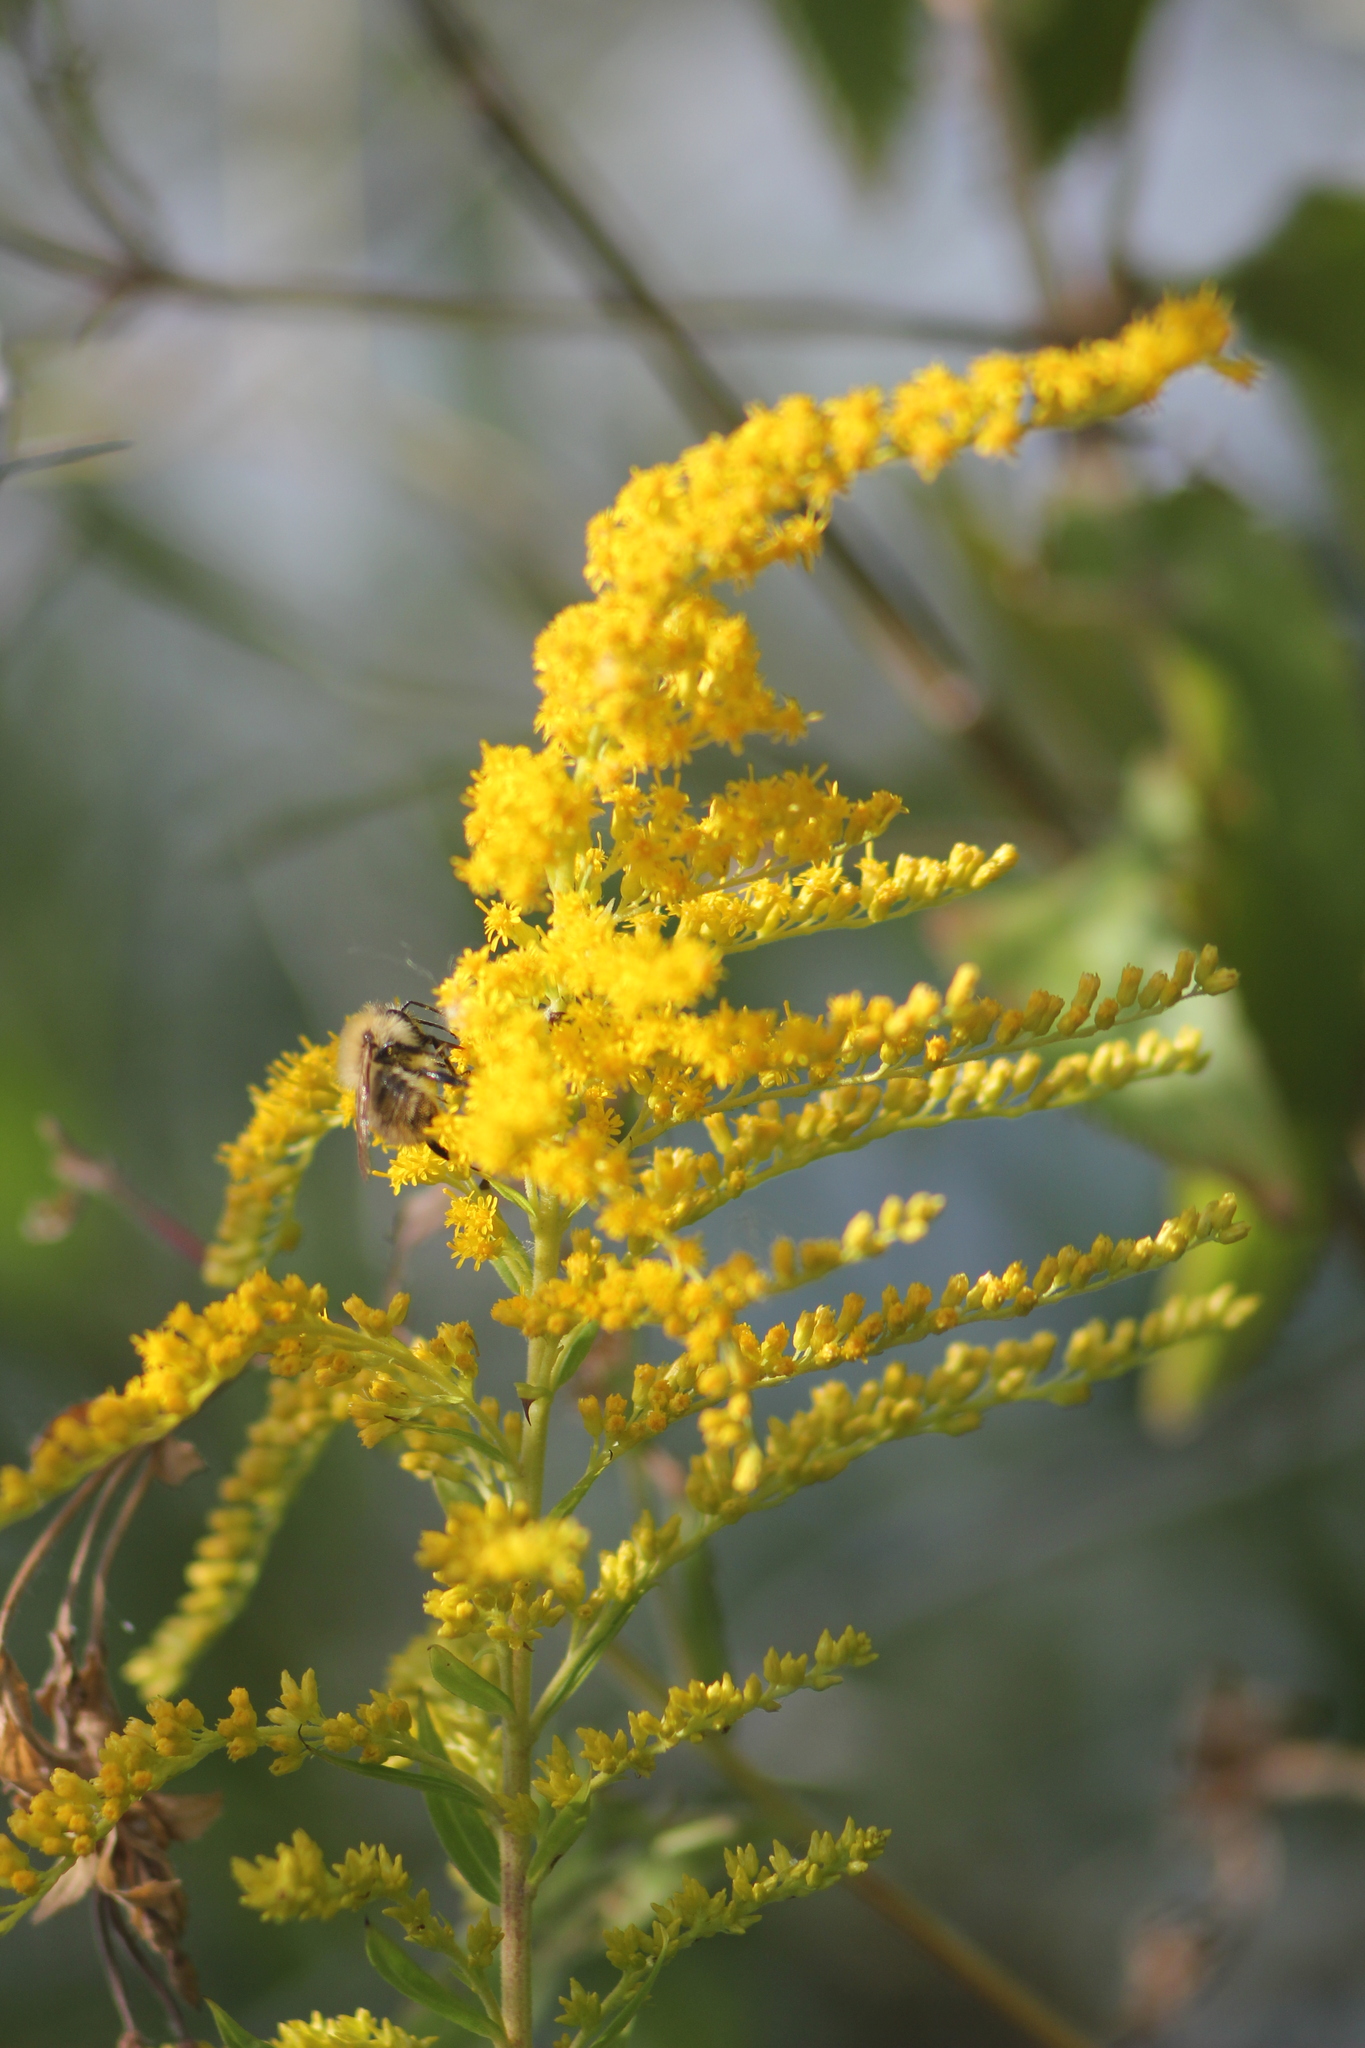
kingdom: Plantae
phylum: Tracheophyta
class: Magnoliopsida
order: Asterales
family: Asteraceae
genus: Solidago
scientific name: Solidago canadensis
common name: Canada goldenrod
